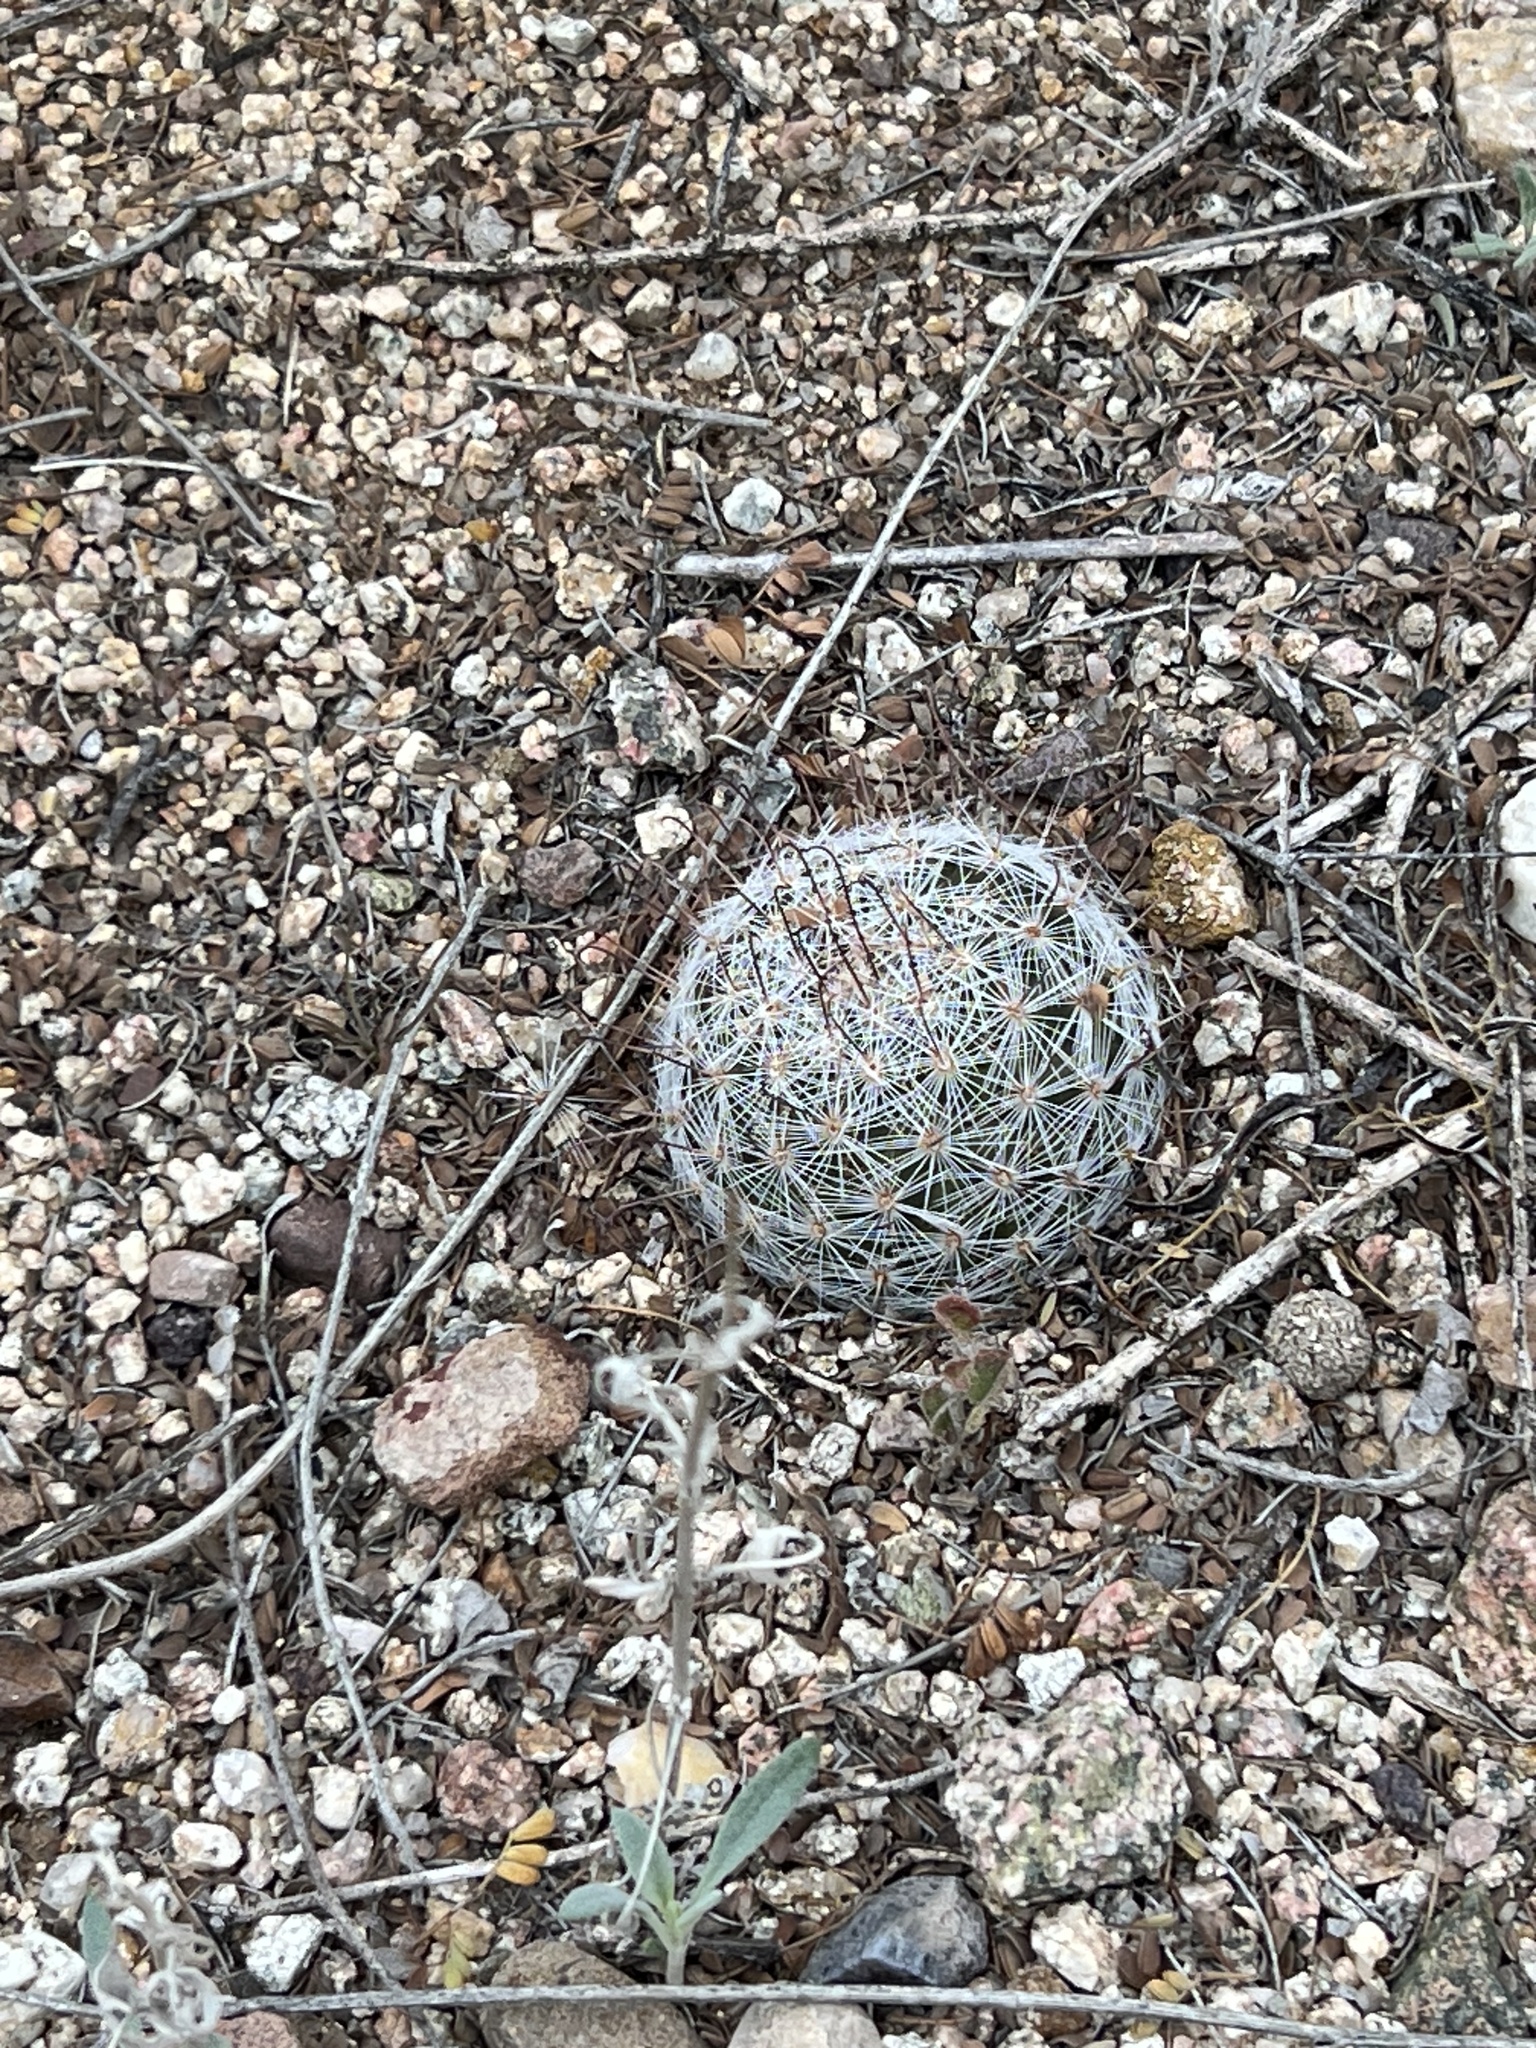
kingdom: Plantae
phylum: Tracheophyta
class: Magnoliopsida
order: Caryophyllales
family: Cactaceae
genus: Cochemiea
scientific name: Cochemiea grahamii
